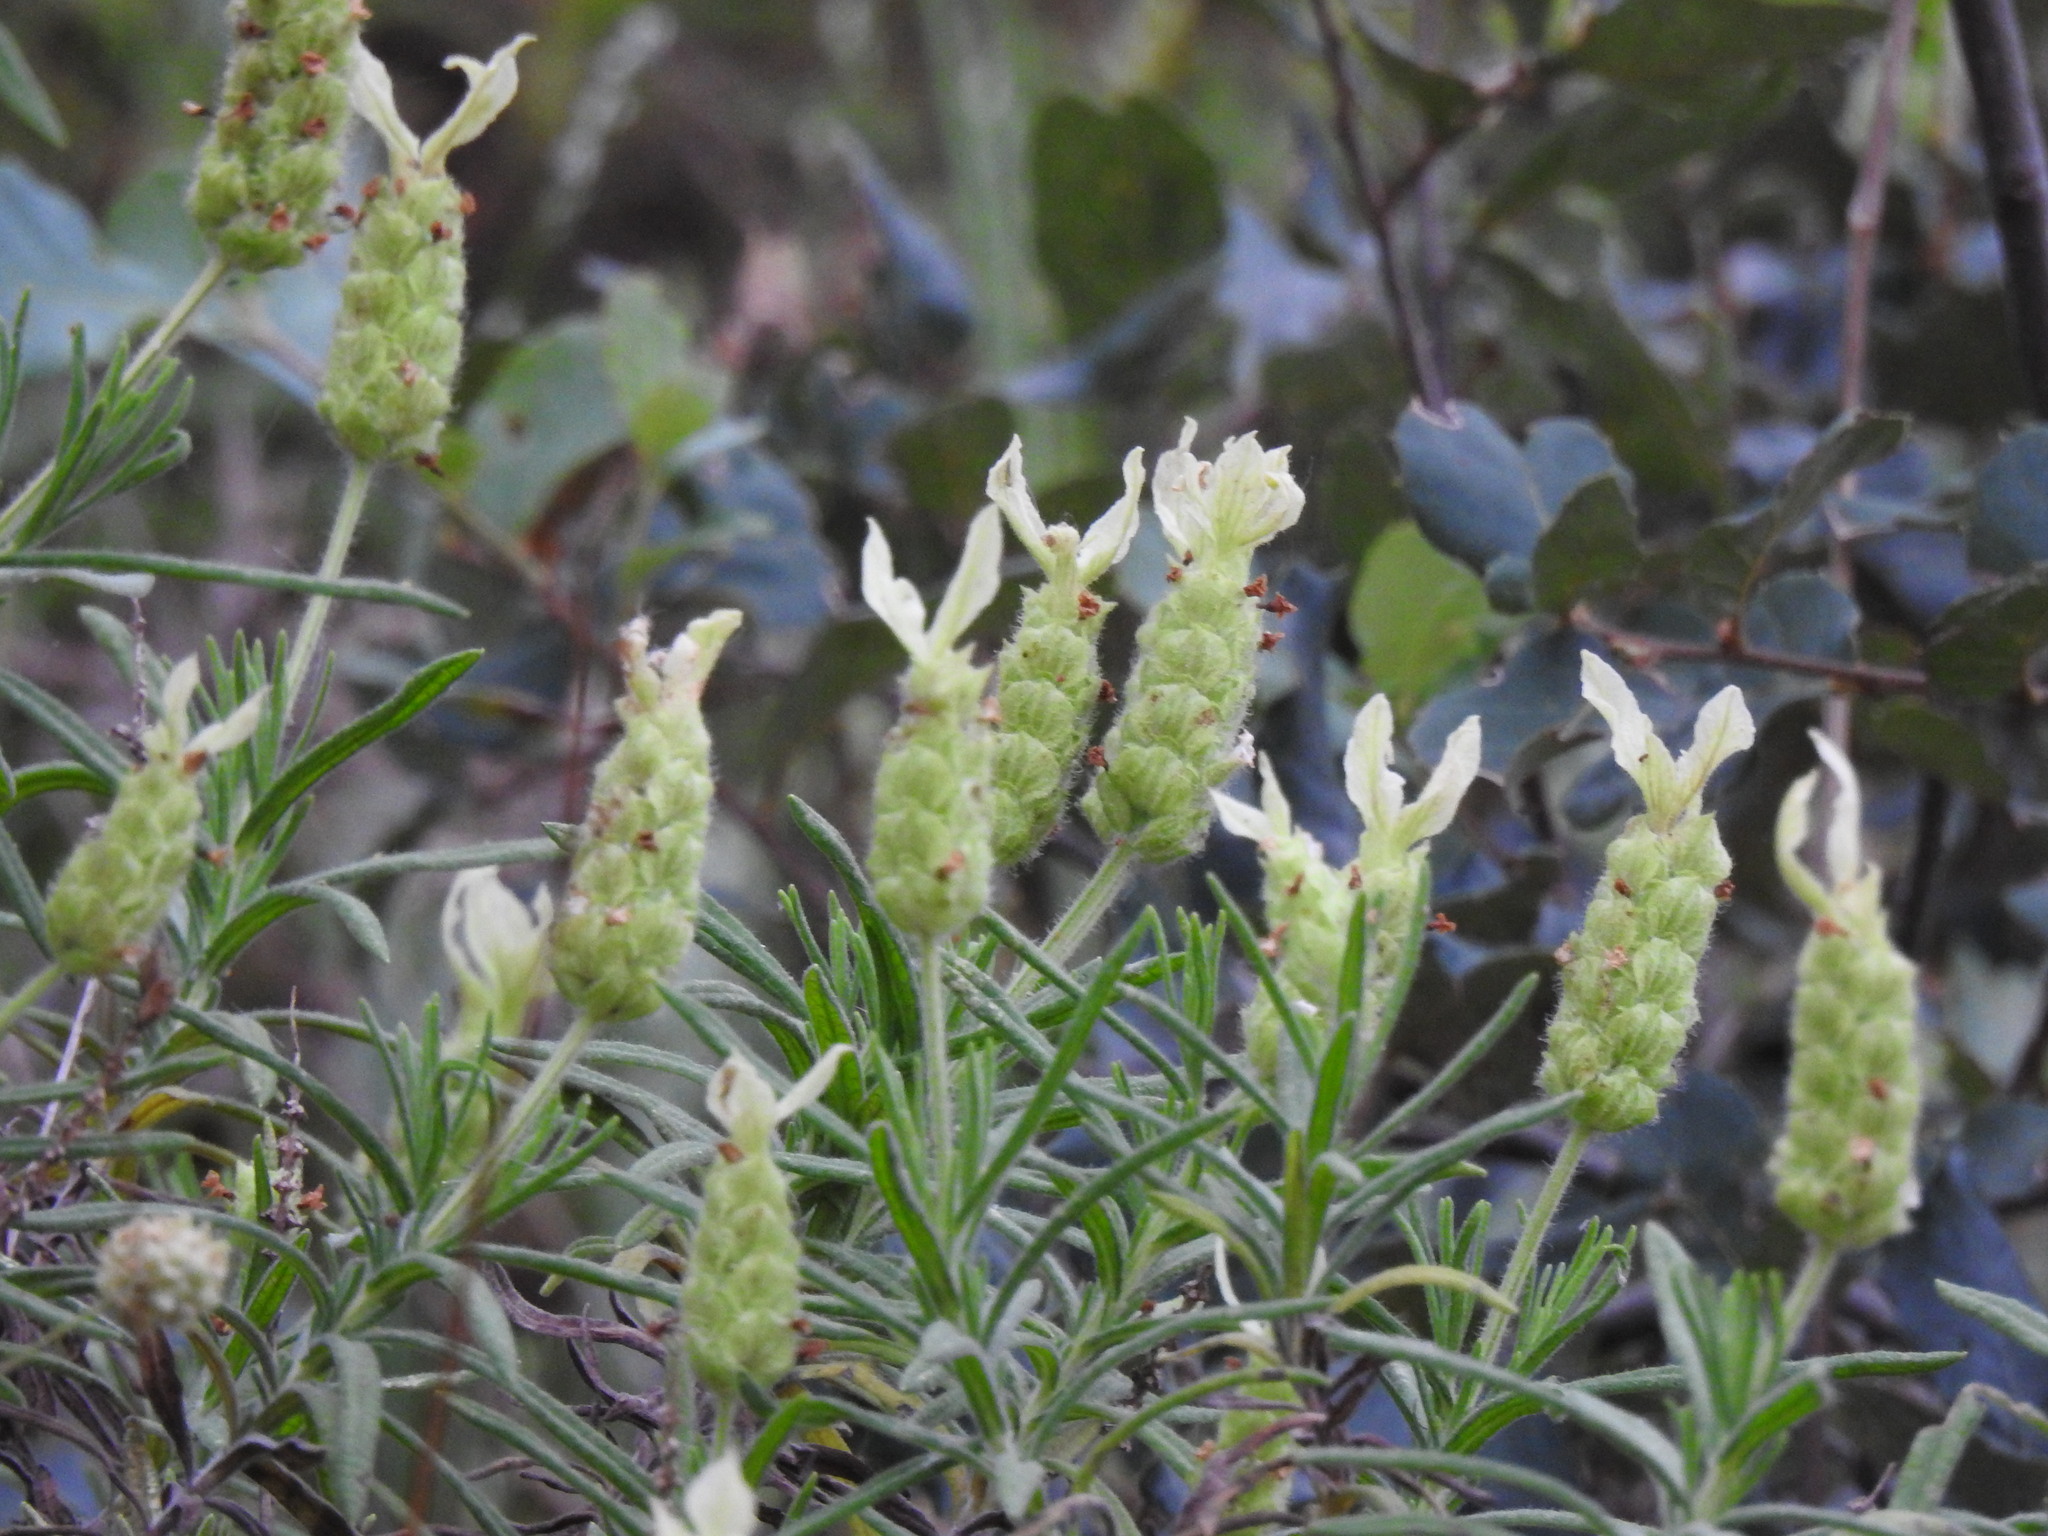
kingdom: Plantae
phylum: Tracheophyta
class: Magnoliopsida
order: Lamiales
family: Lamiaceae
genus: Lavandula
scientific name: Lavandula viridis
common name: Green spanish lavender
